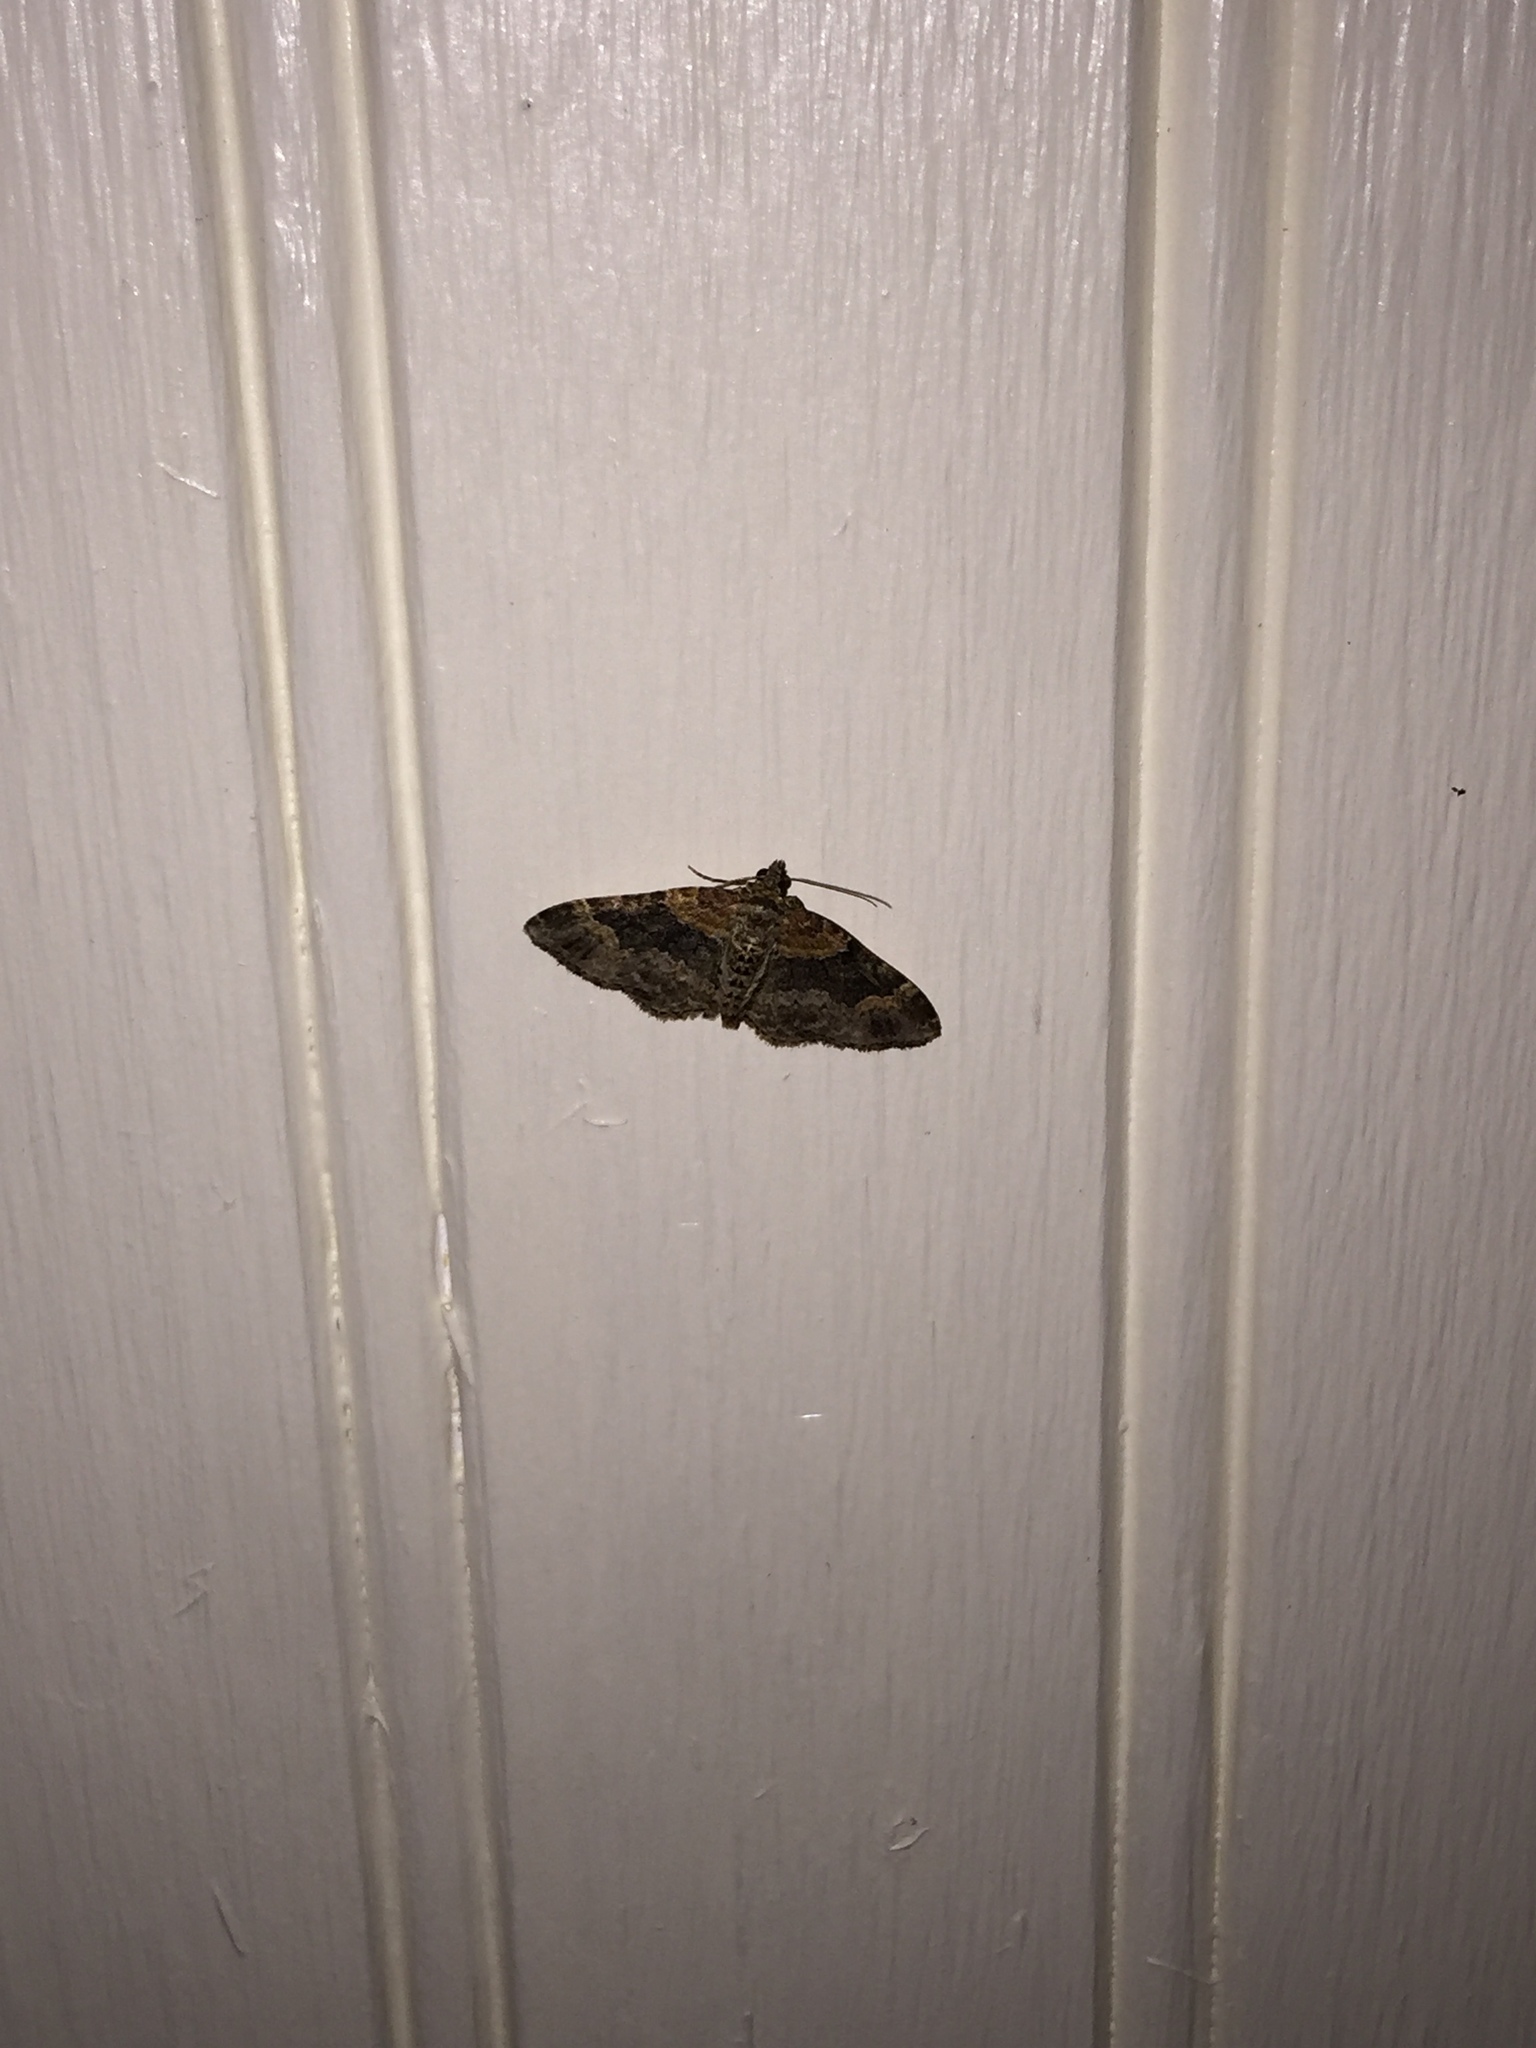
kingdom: Animalia
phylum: Arthropoda
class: Insecta
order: Lepidoptera
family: Geometridae
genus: Xanthorhoe
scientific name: Xanthorhoe ferrugata
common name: Dark-barred twin-spot carpet
